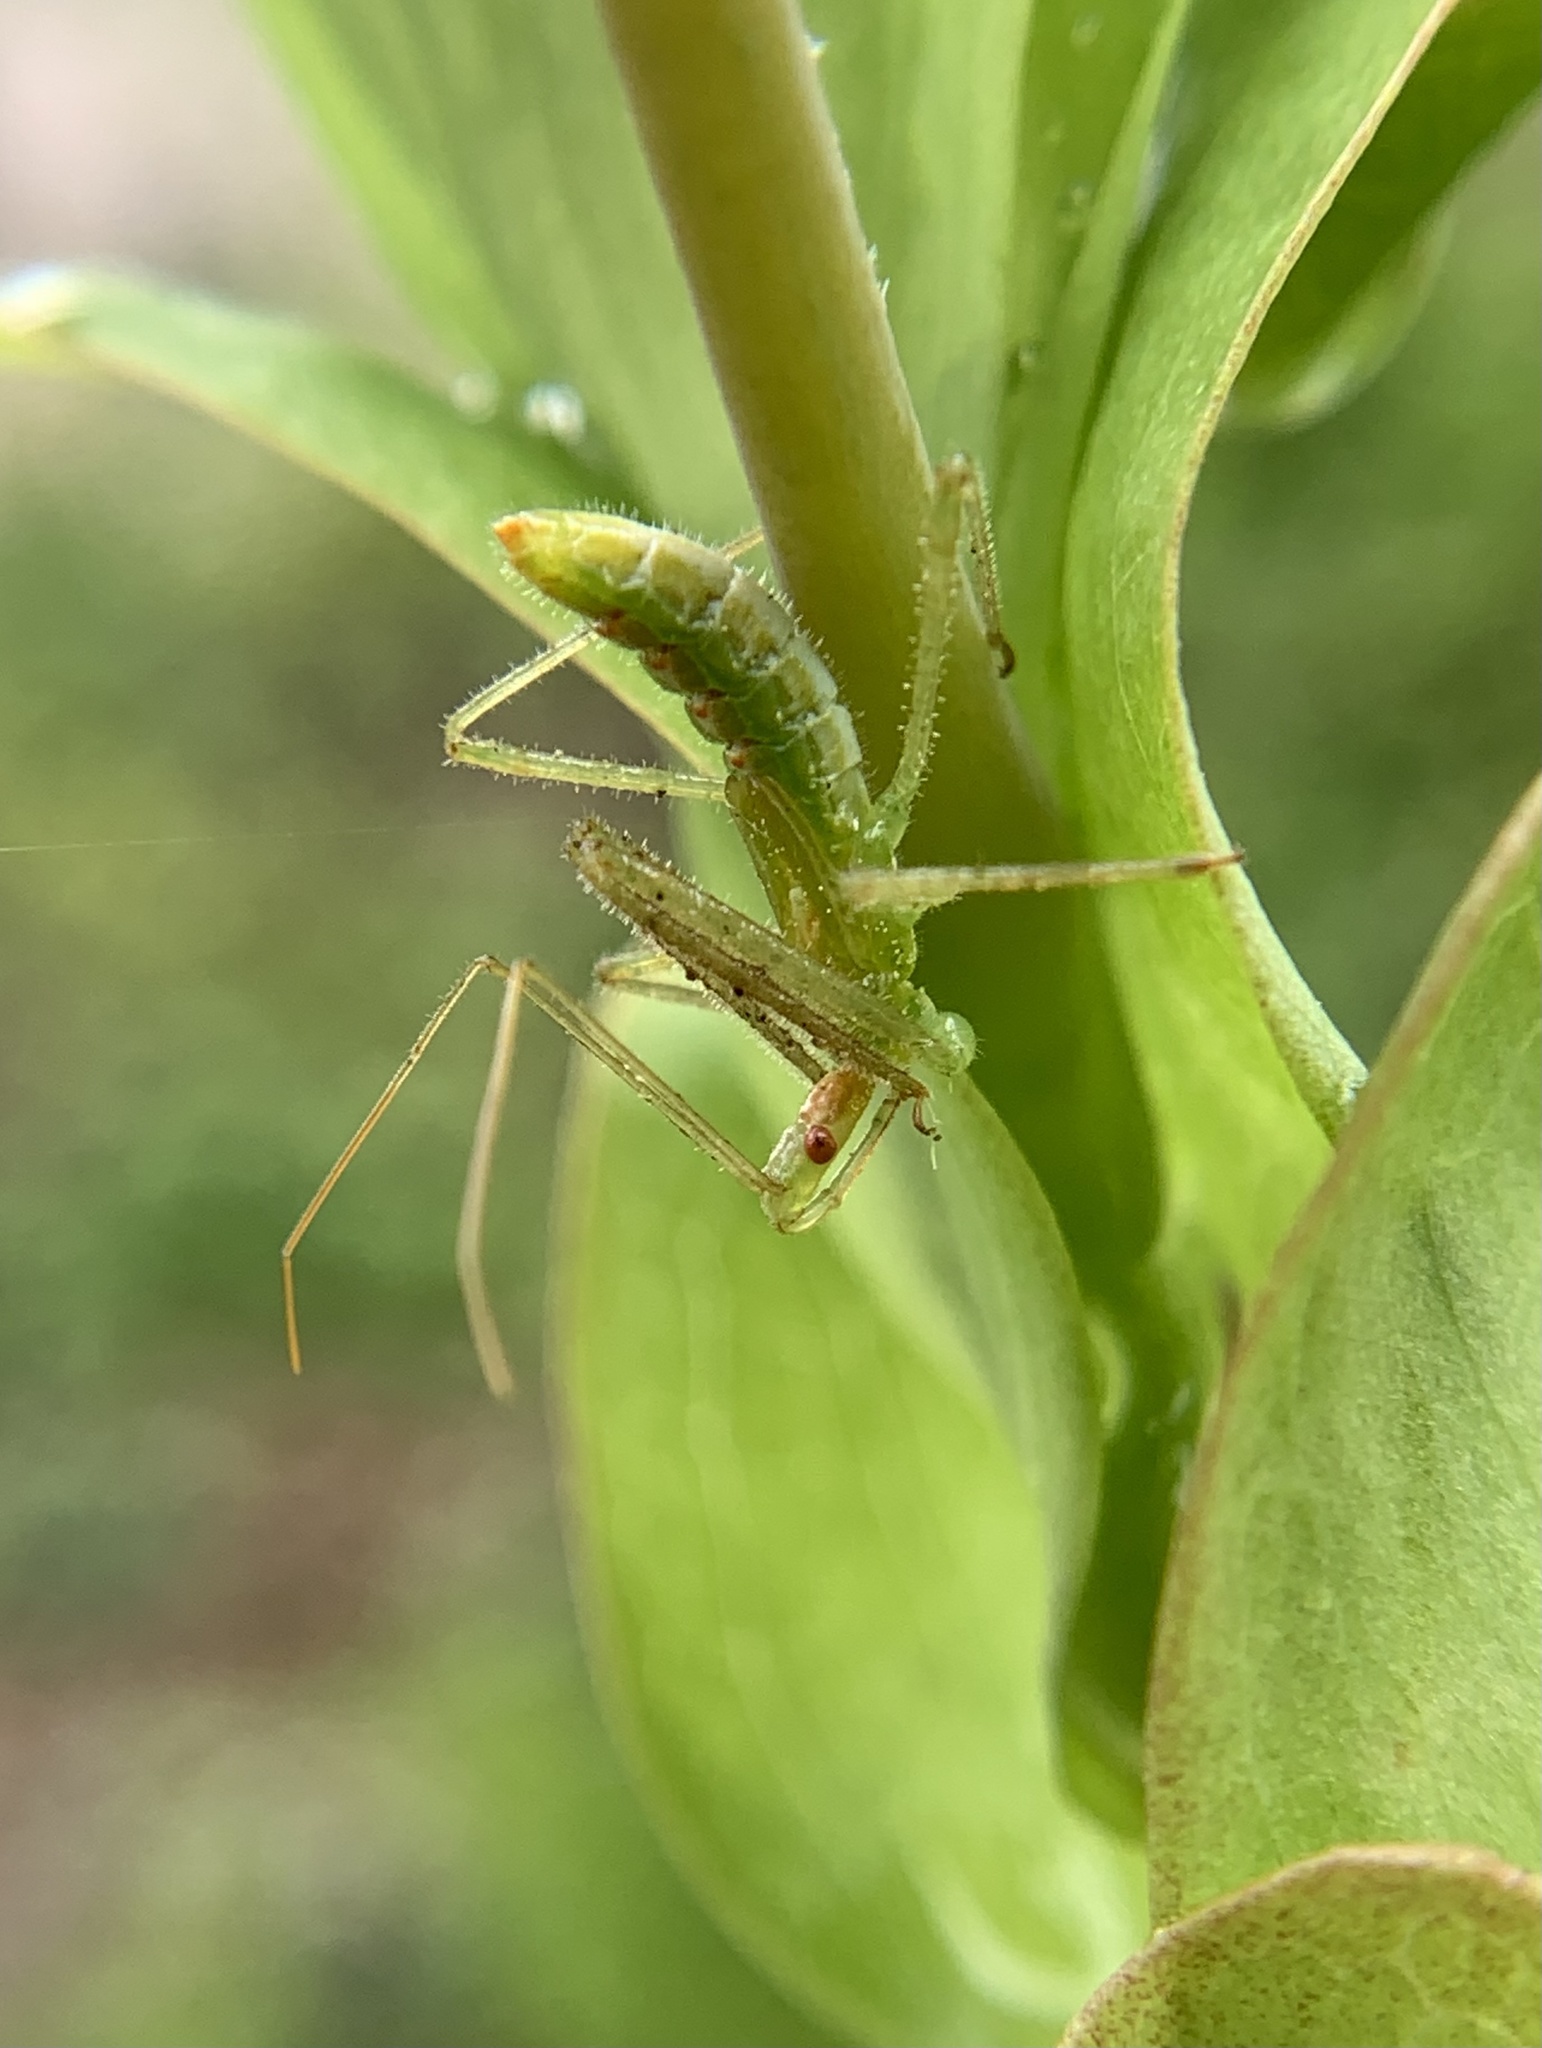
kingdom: Animalia
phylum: Arthropoda
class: Insecta
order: Hemiptera
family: Reduviidae
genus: Zelus
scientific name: Zelus luridus
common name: Pale green assassin bug
